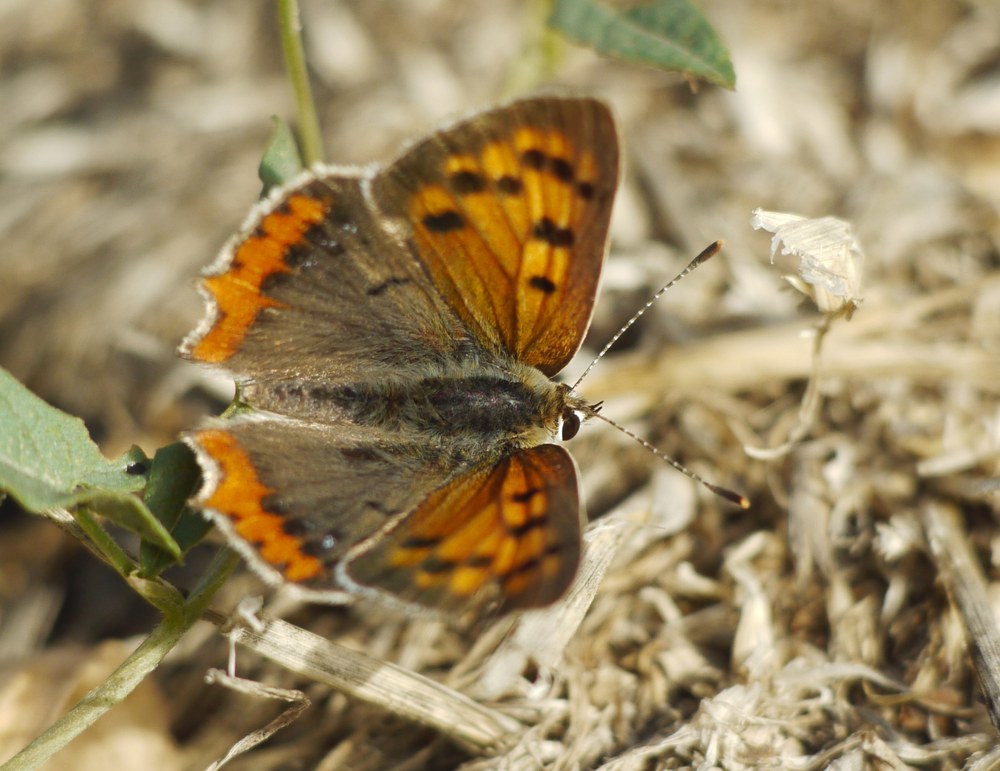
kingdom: Animalia
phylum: Arthropoda
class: Insecta
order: Lepidoptera
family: Lycaenidae
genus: Lycaena
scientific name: Lycaena phlaeas
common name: Small copper
